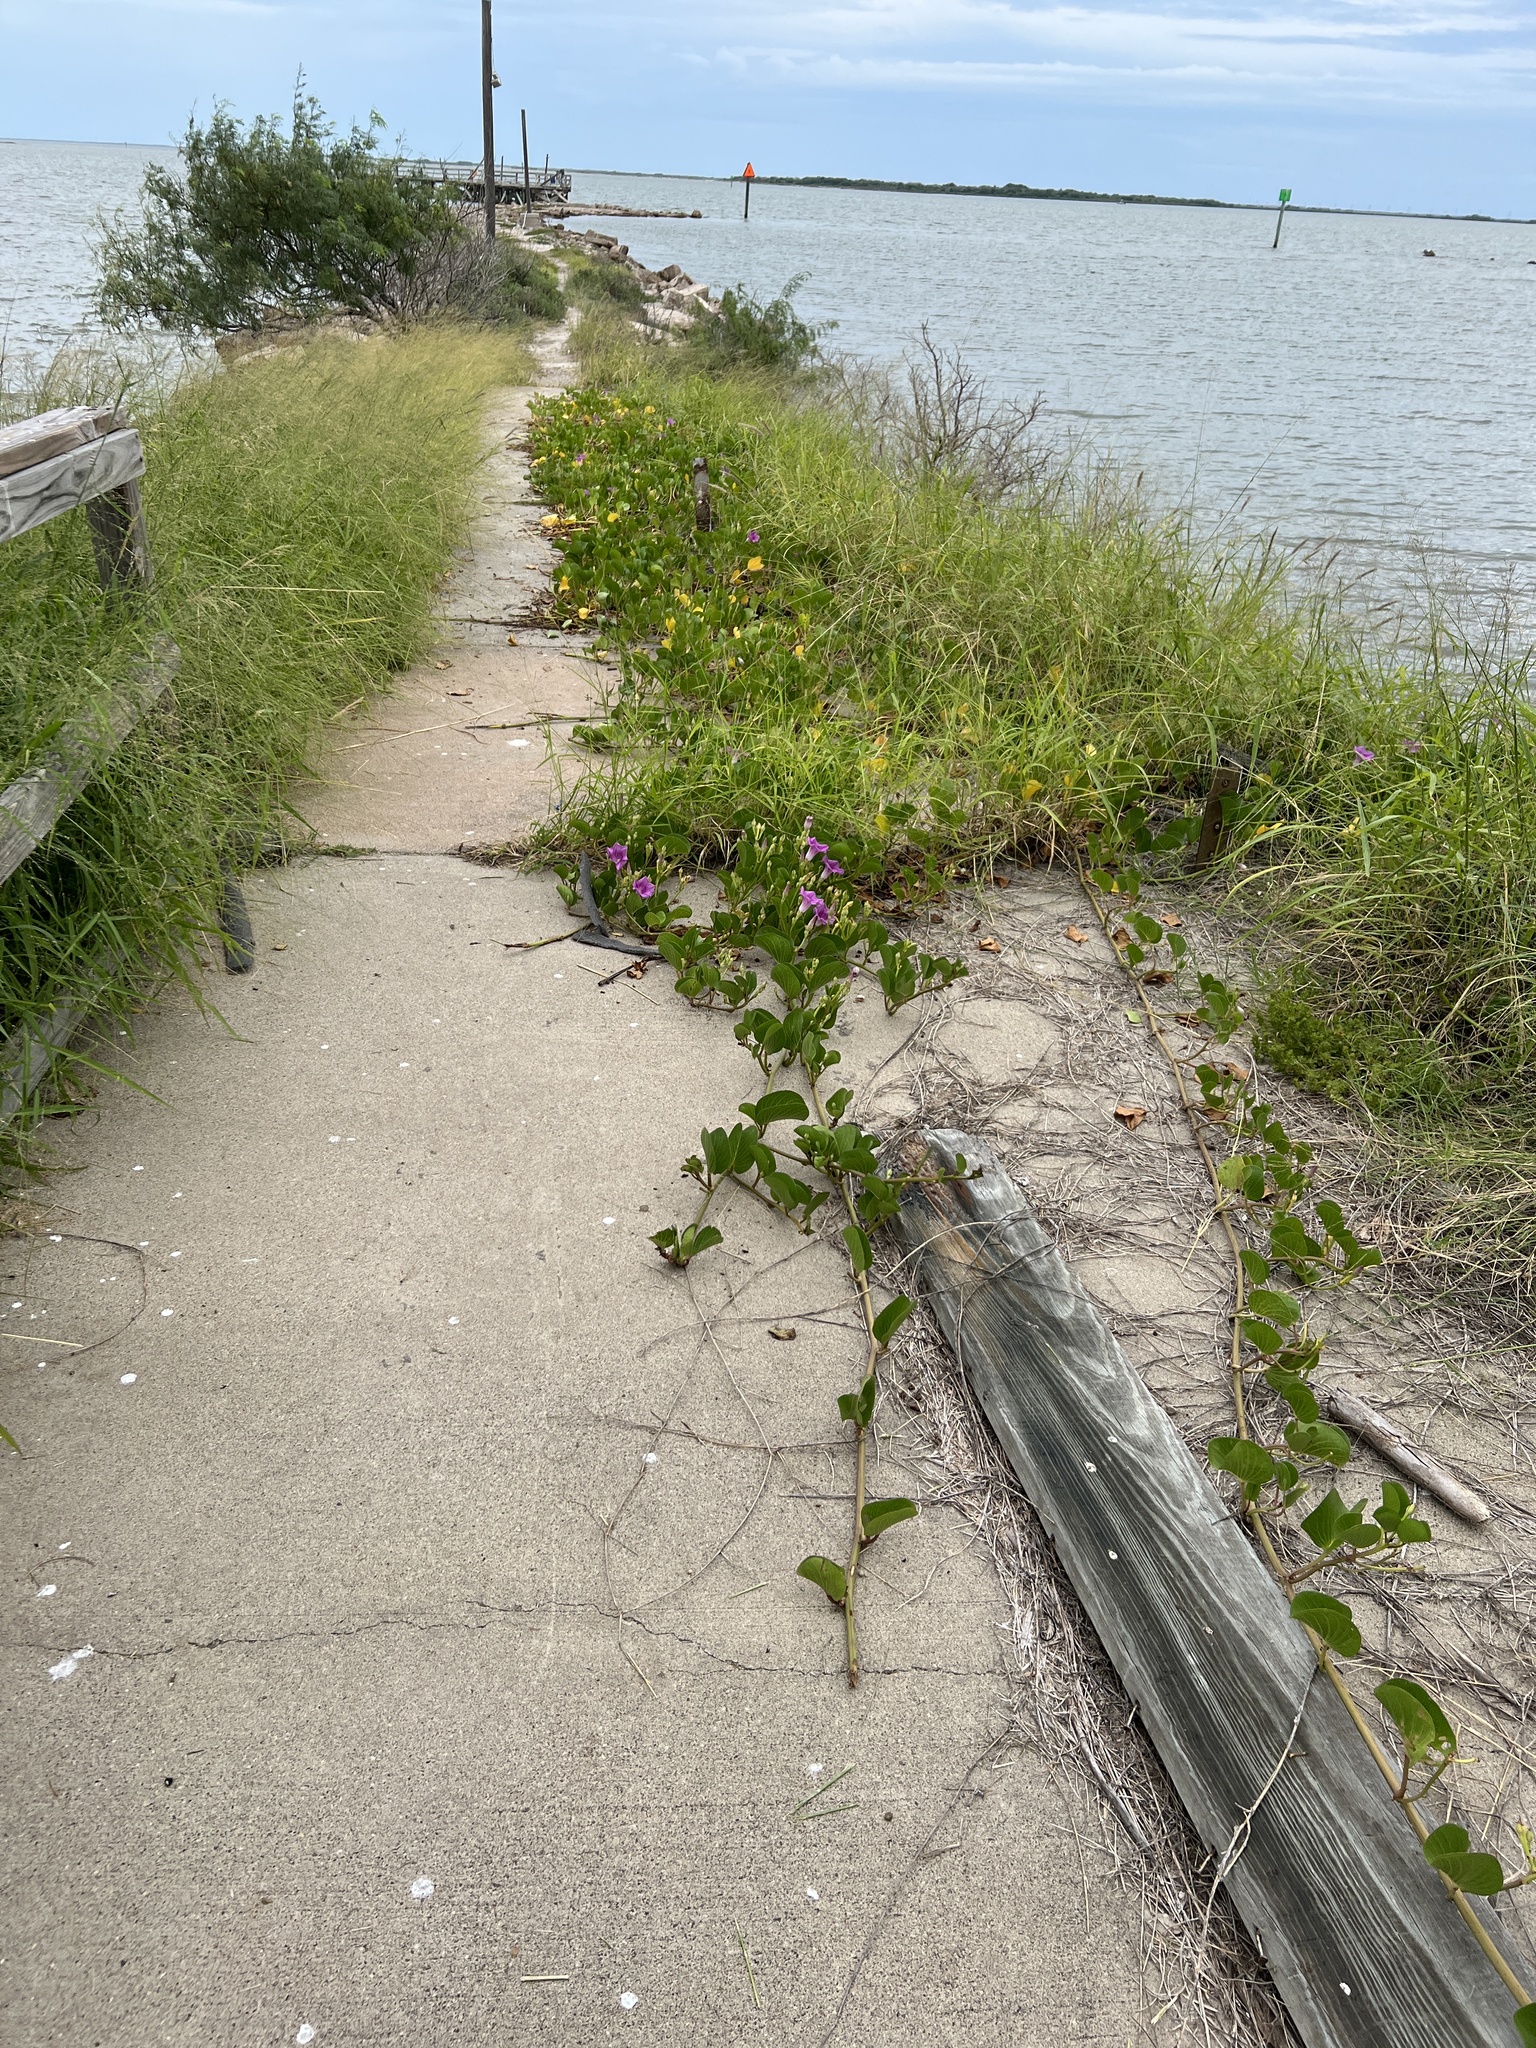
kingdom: Plantae
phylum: Tracheophyta
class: Magnoliopsida
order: Solanales
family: Convolvulaceae
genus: Ipomoea
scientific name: Ipomoea pes-caprae
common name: Beach morning glory
